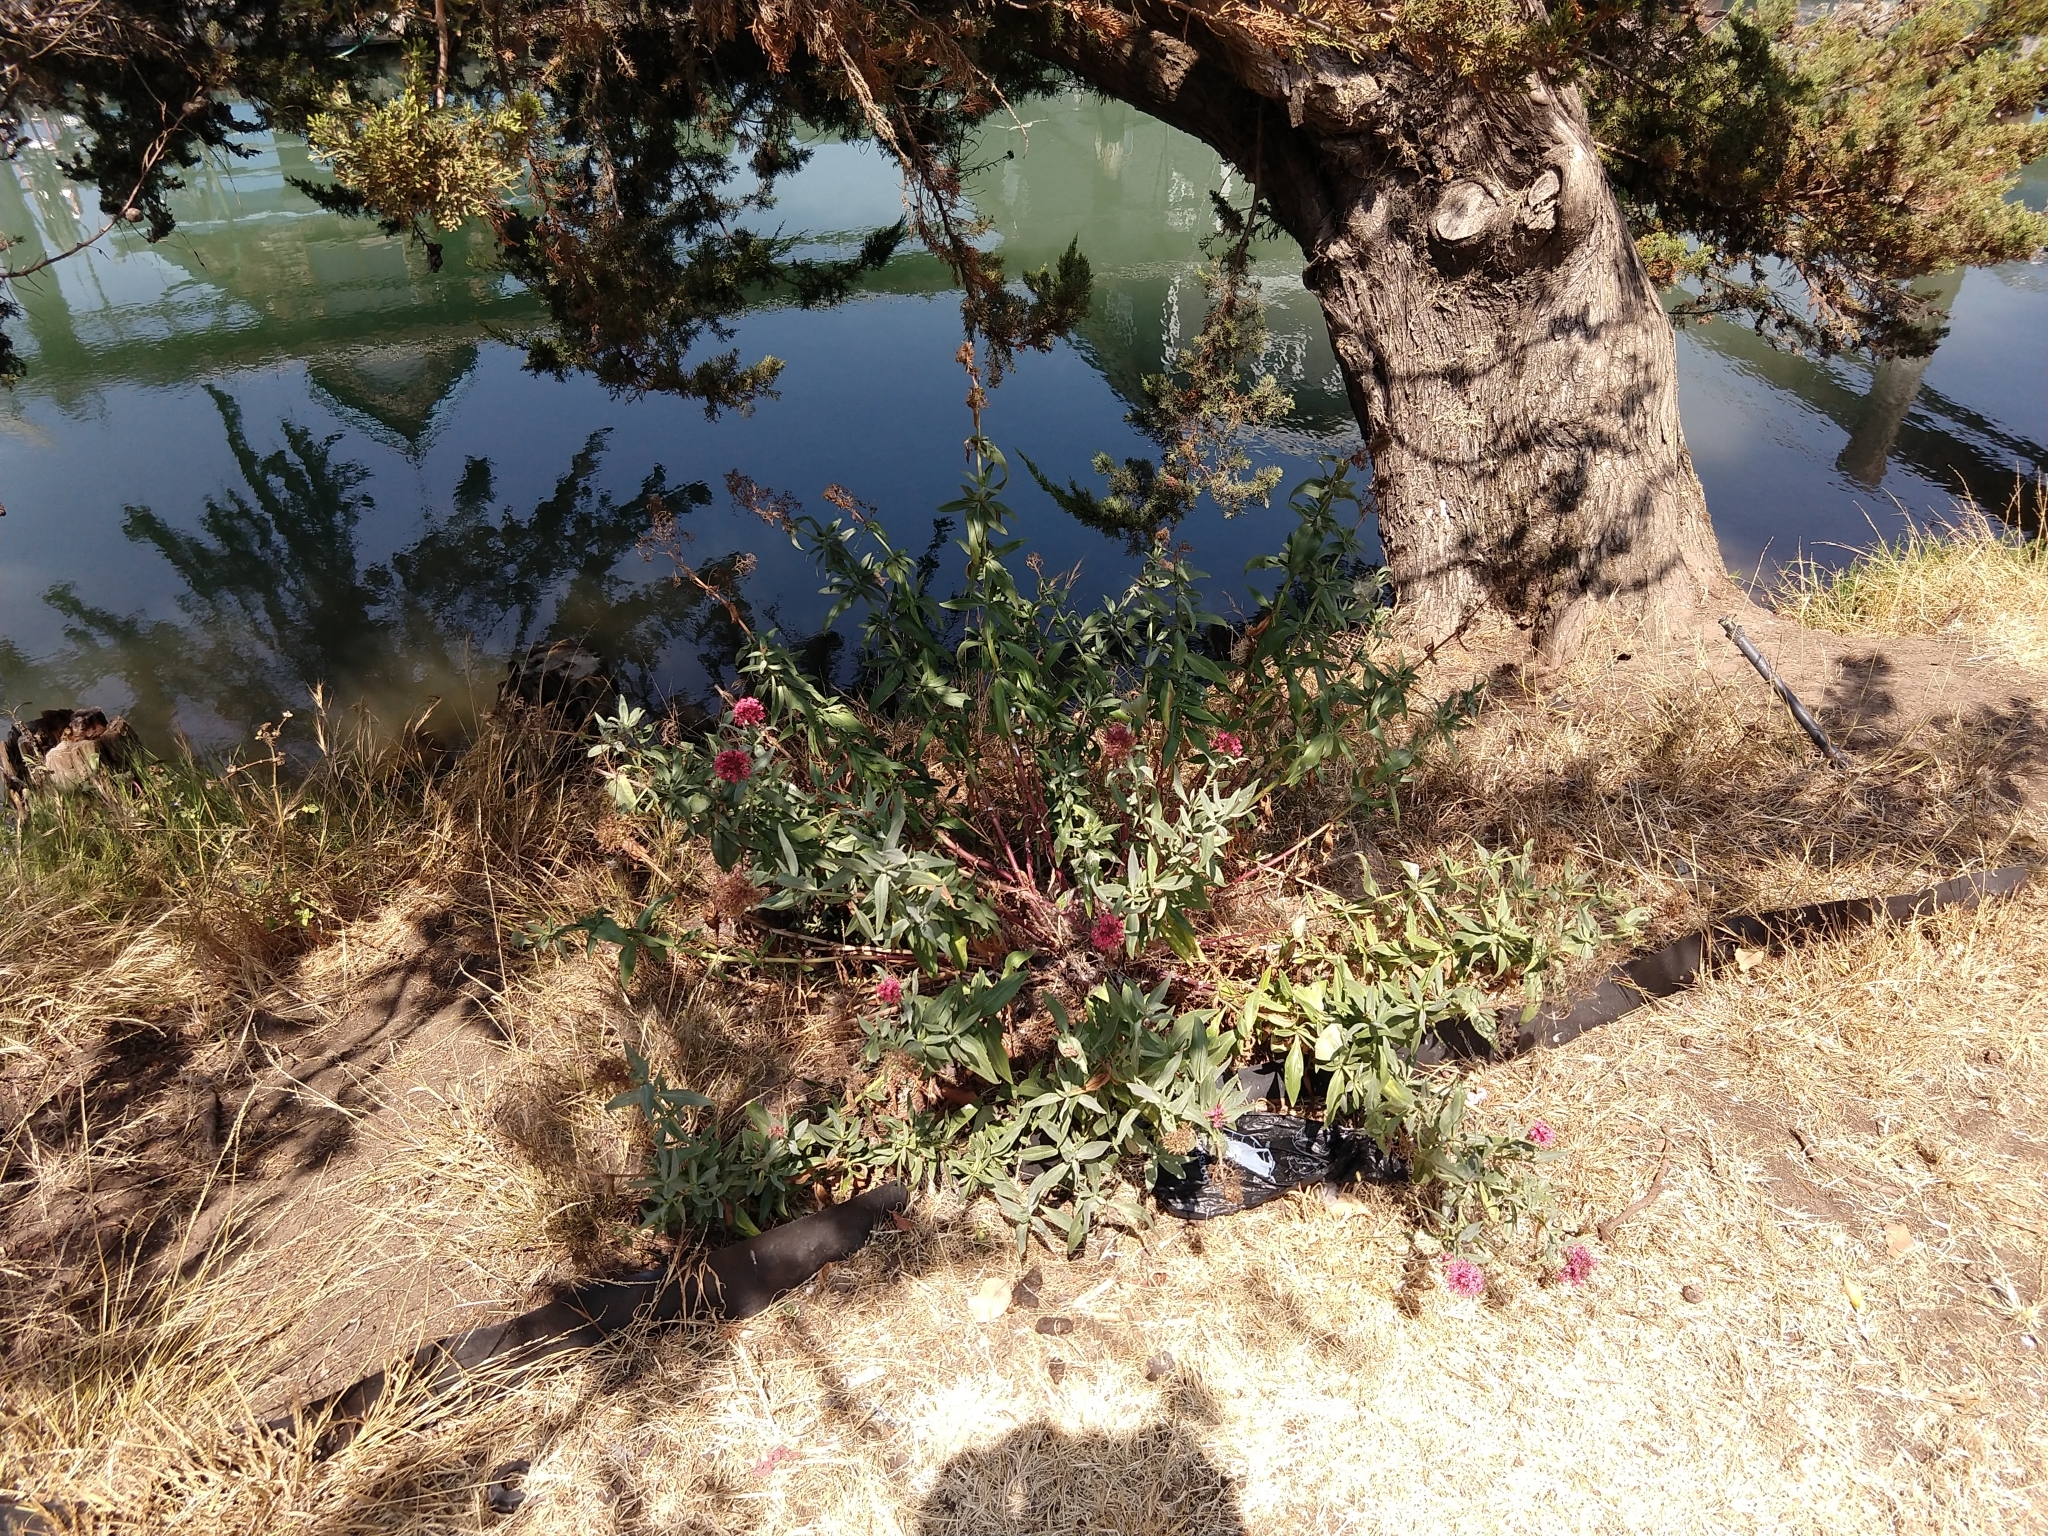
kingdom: Plantae
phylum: Tracheophyta
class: Magnoliopsida
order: Dipsacales
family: Caprifoliaceae
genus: Centranthus
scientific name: Centranthus ruber
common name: Red valerian
